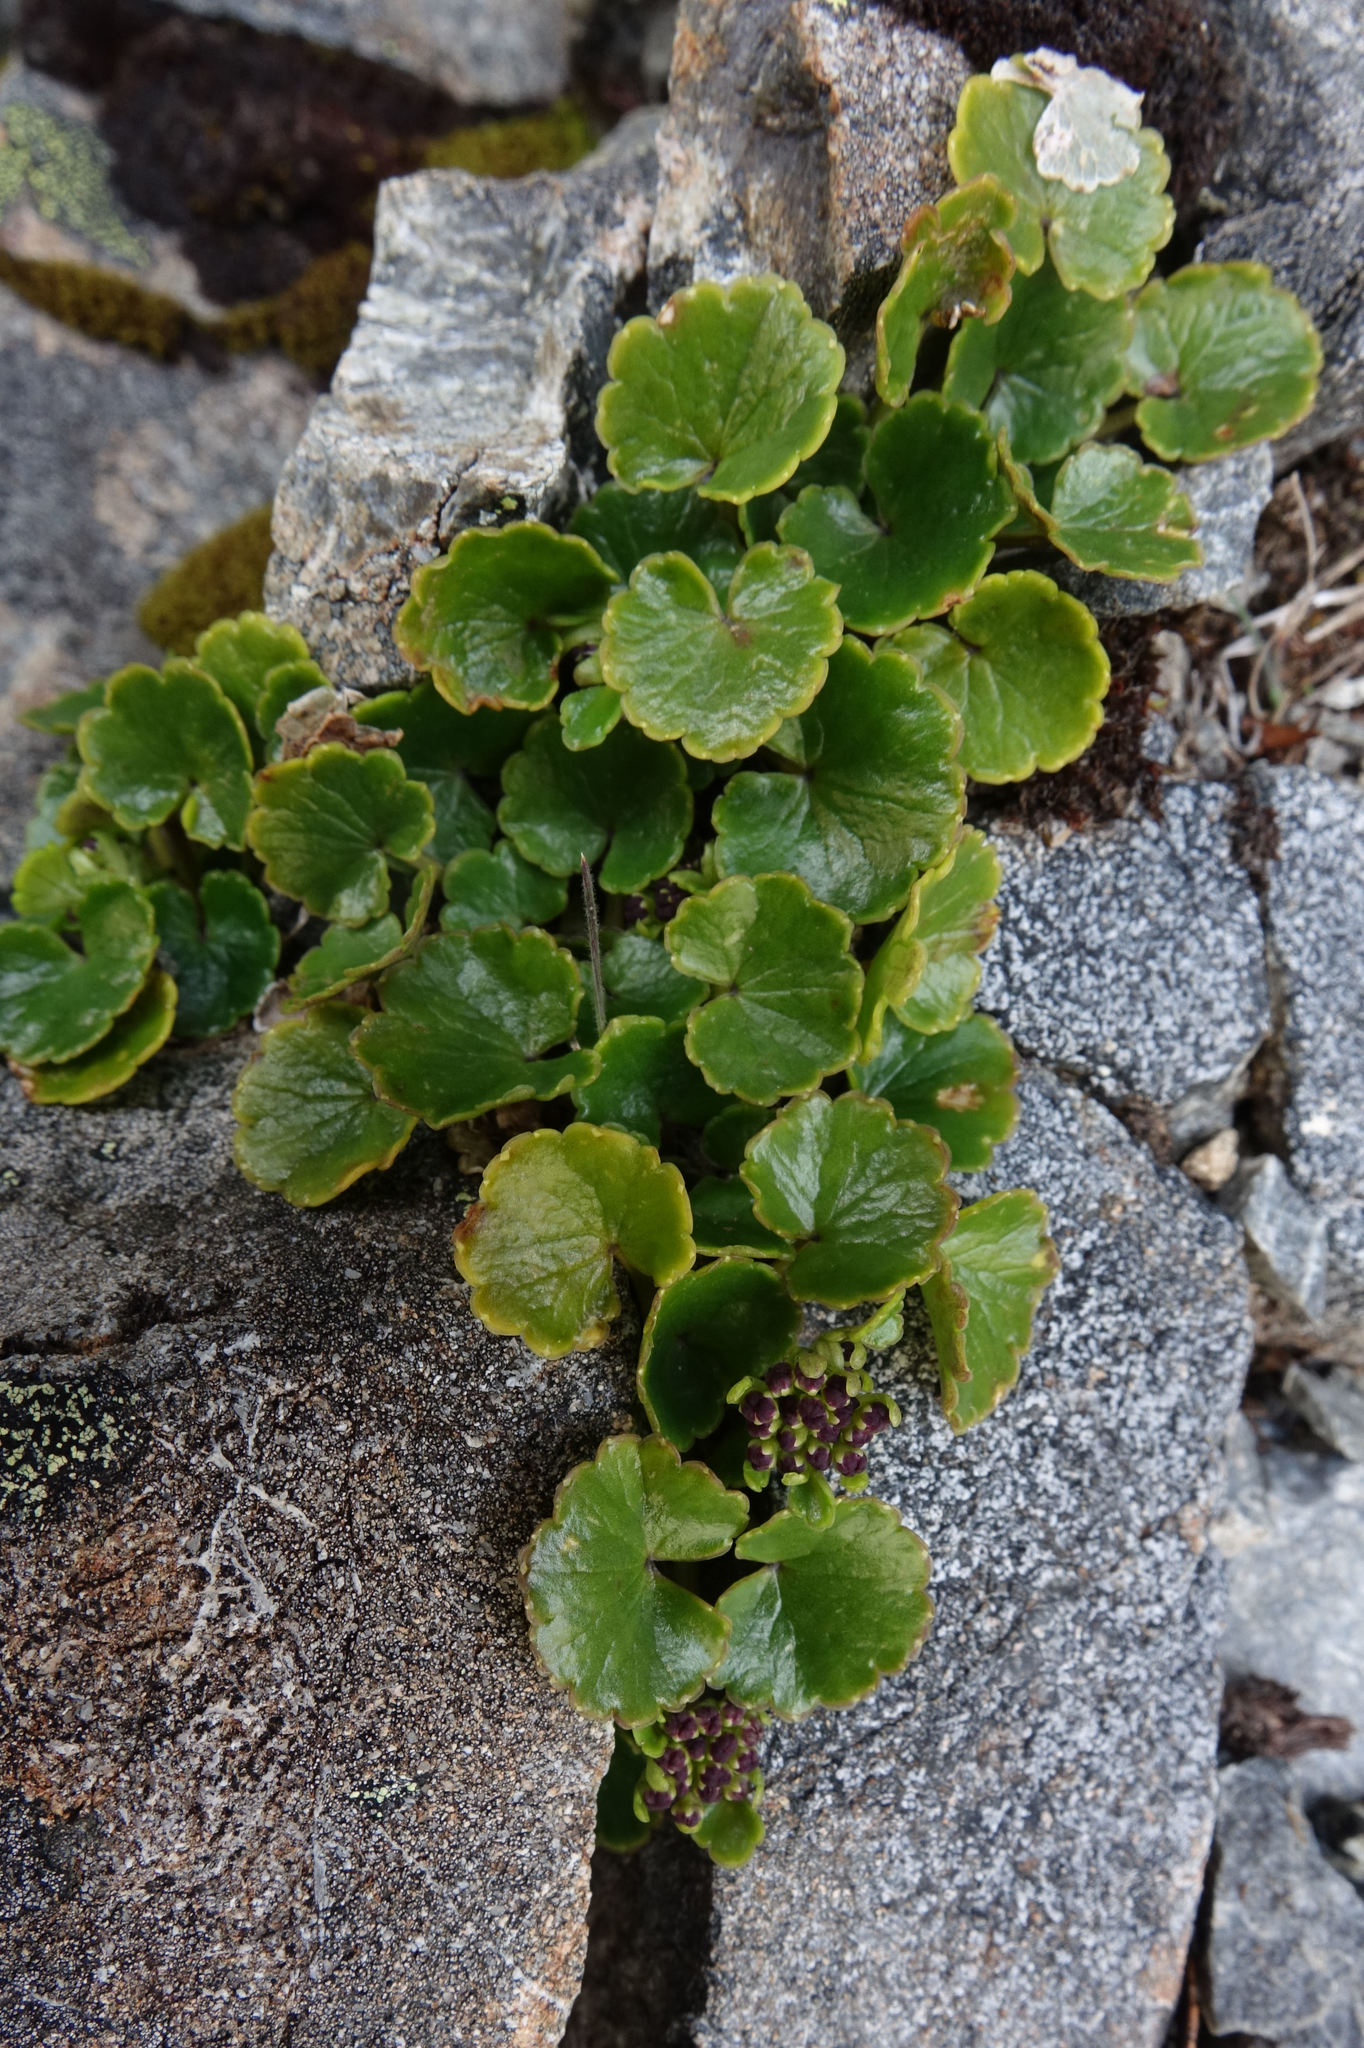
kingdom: Plantae
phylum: Tracheophyta
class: Magnoliopsida
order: Apiales
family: Apiaceae
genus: Azorella
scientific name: Azorella haastii
